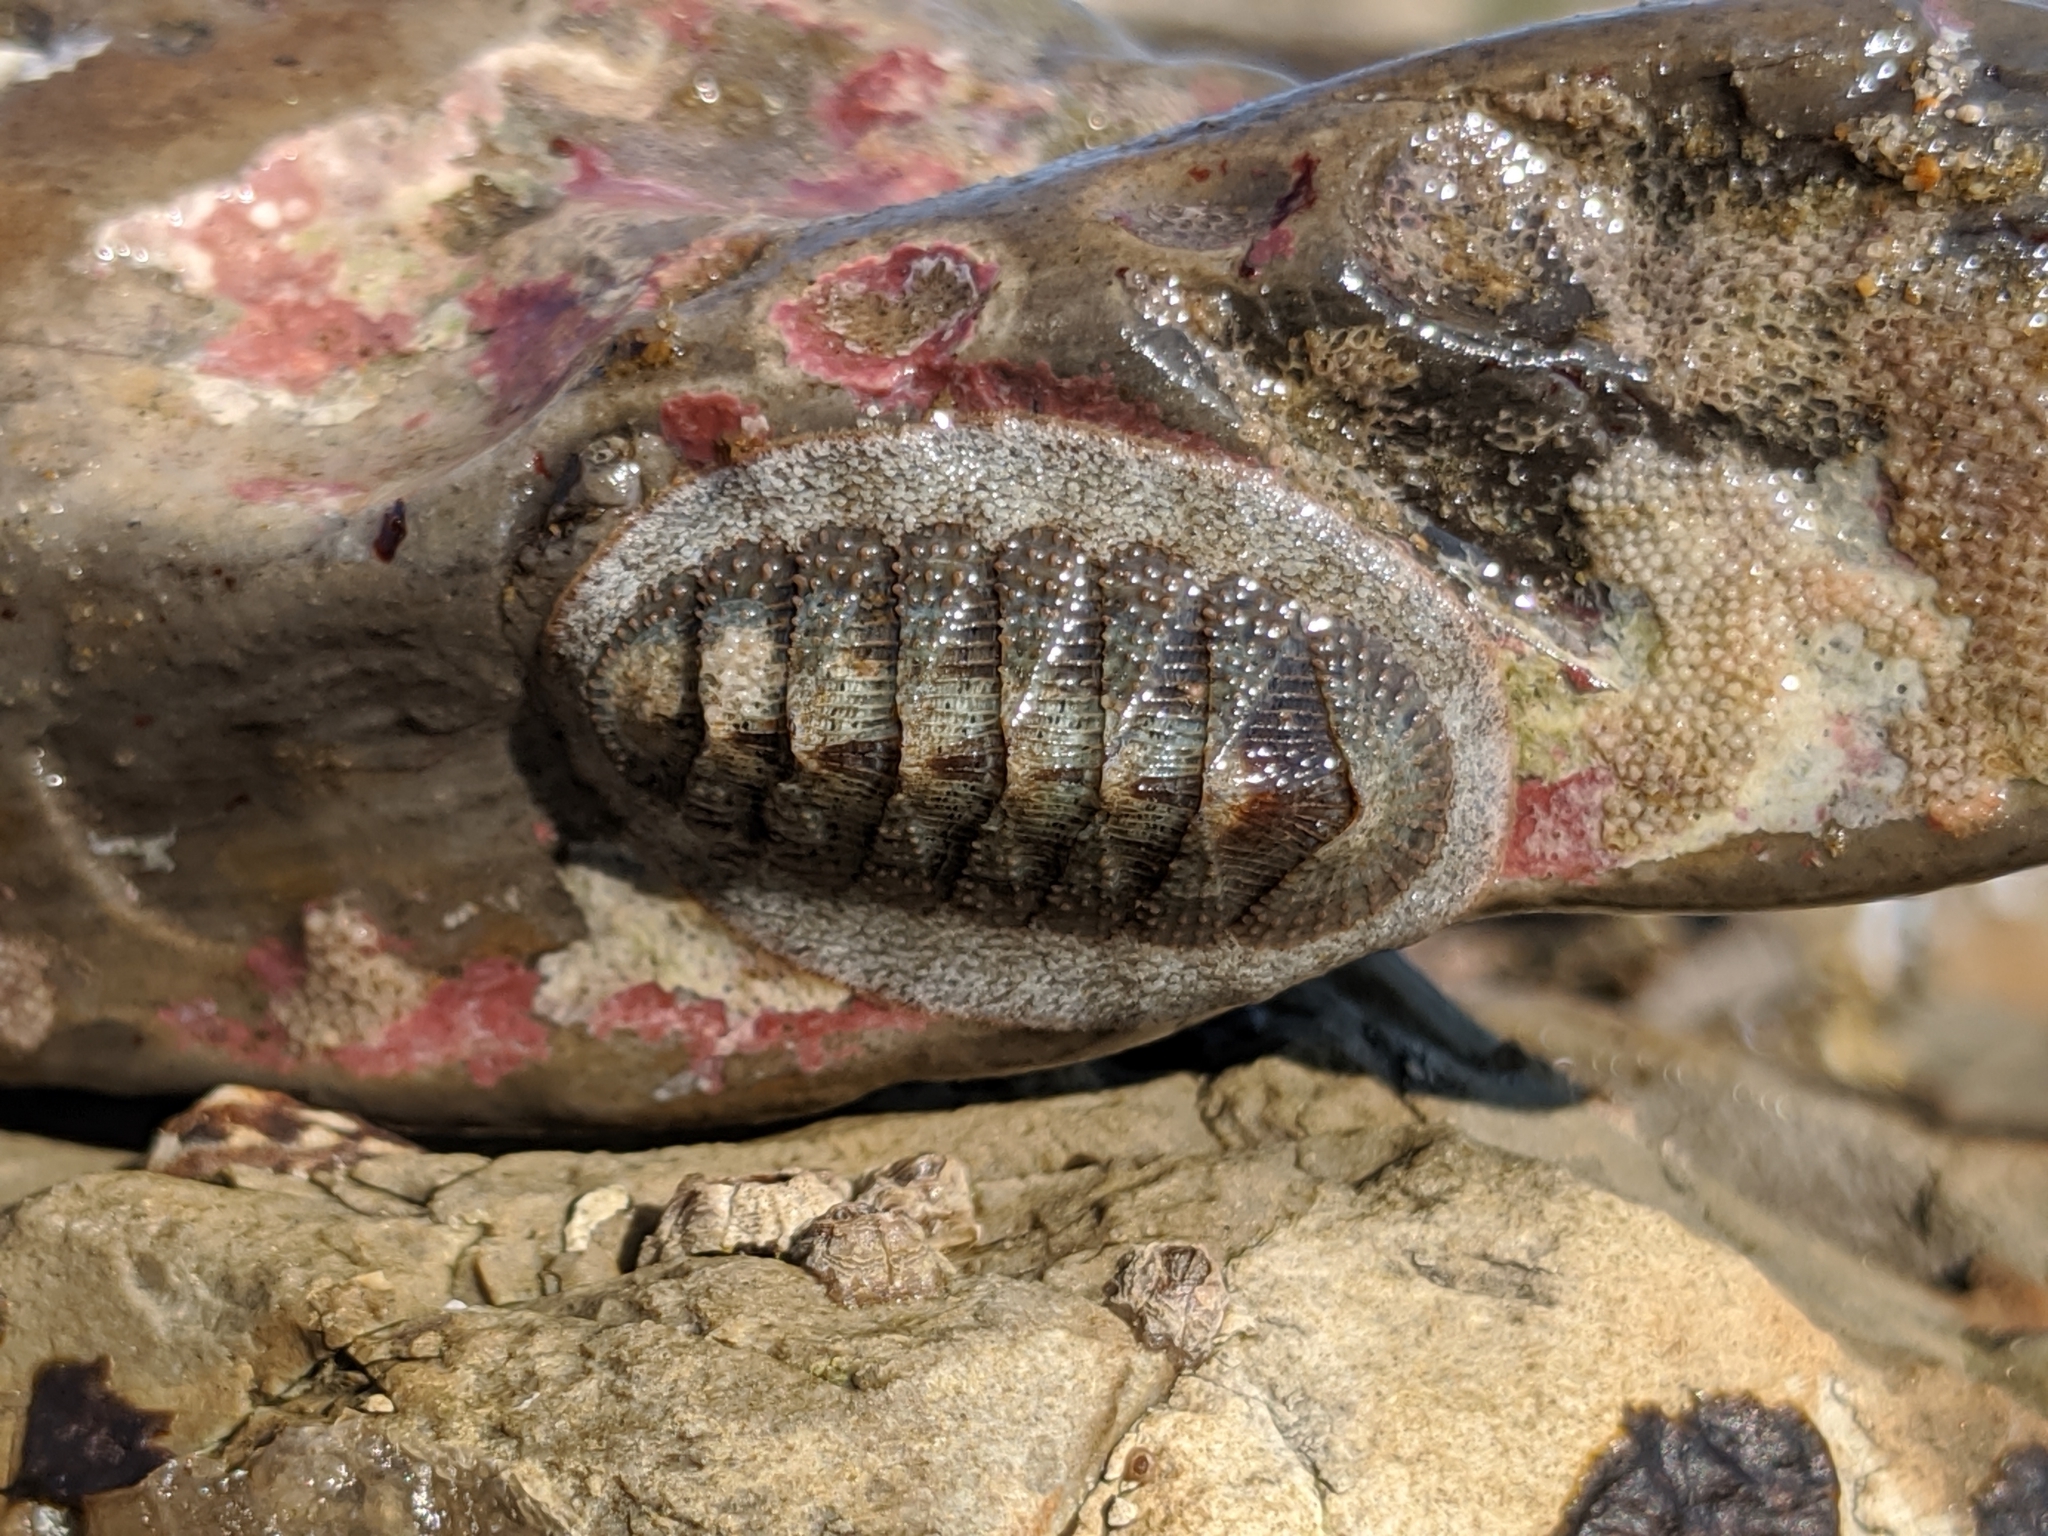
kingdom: Animalia
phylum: Mollusca
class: Polyplacophora
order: Chitonida
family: Ischnochitonidae
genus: Lepidozona
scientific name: Lepidozona cooperi
